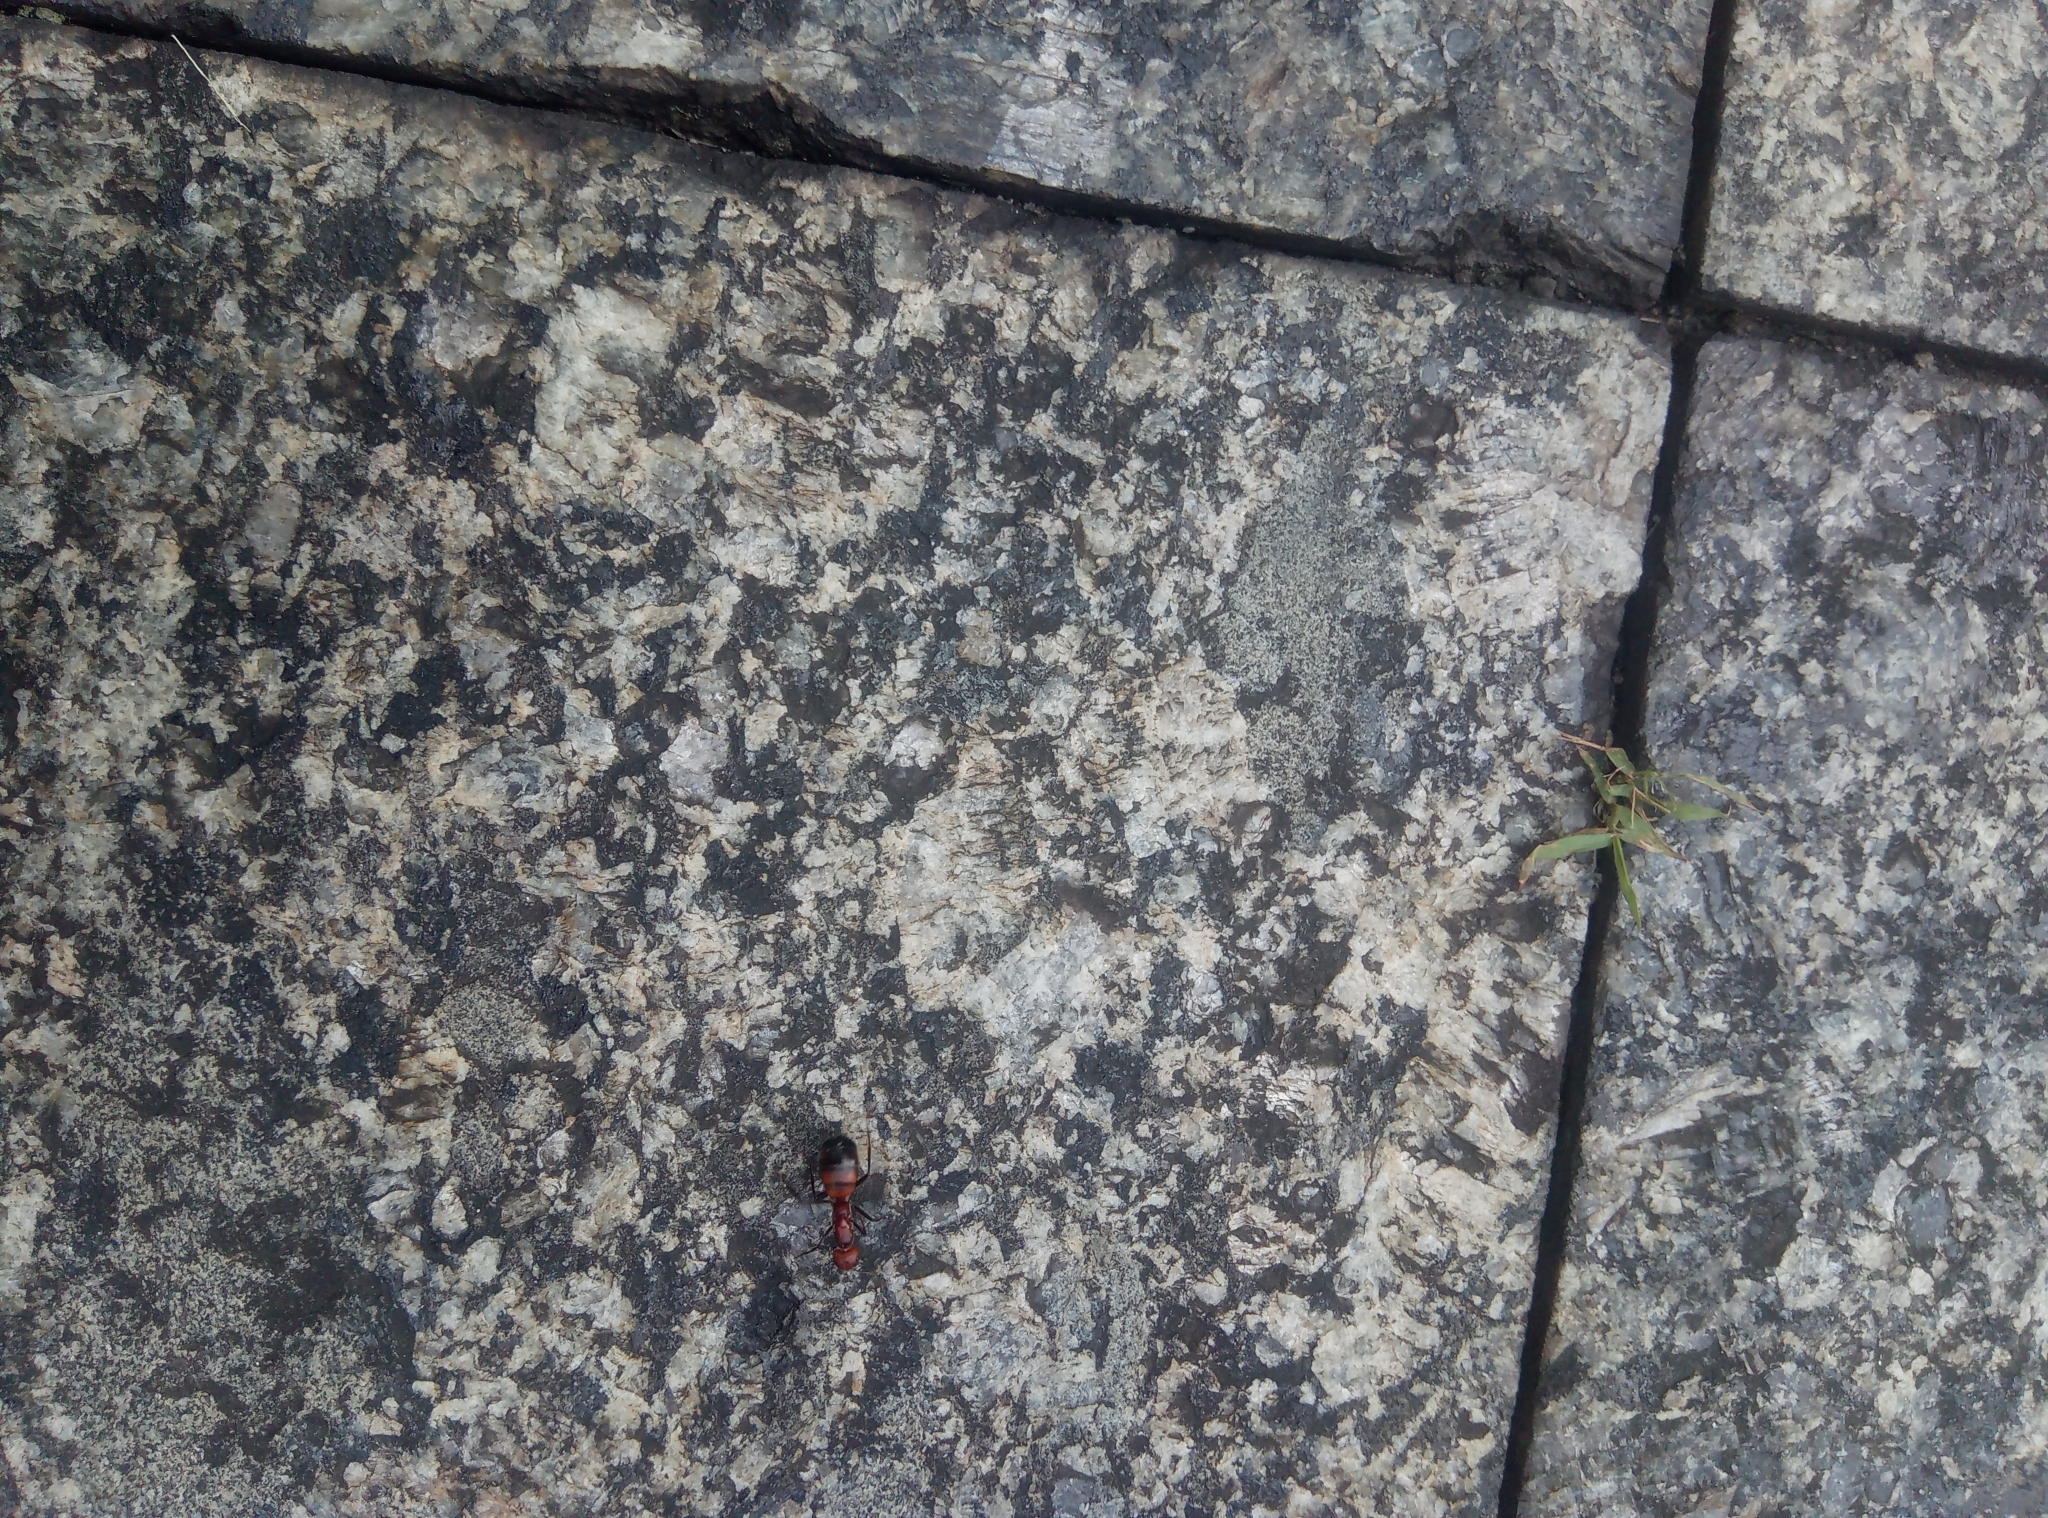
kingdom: Animalia
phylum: Arthropoda
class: Insecta
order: Hymenoptera
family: Formicidae
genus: Camponotus
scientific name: Camponotus nicobarensis
